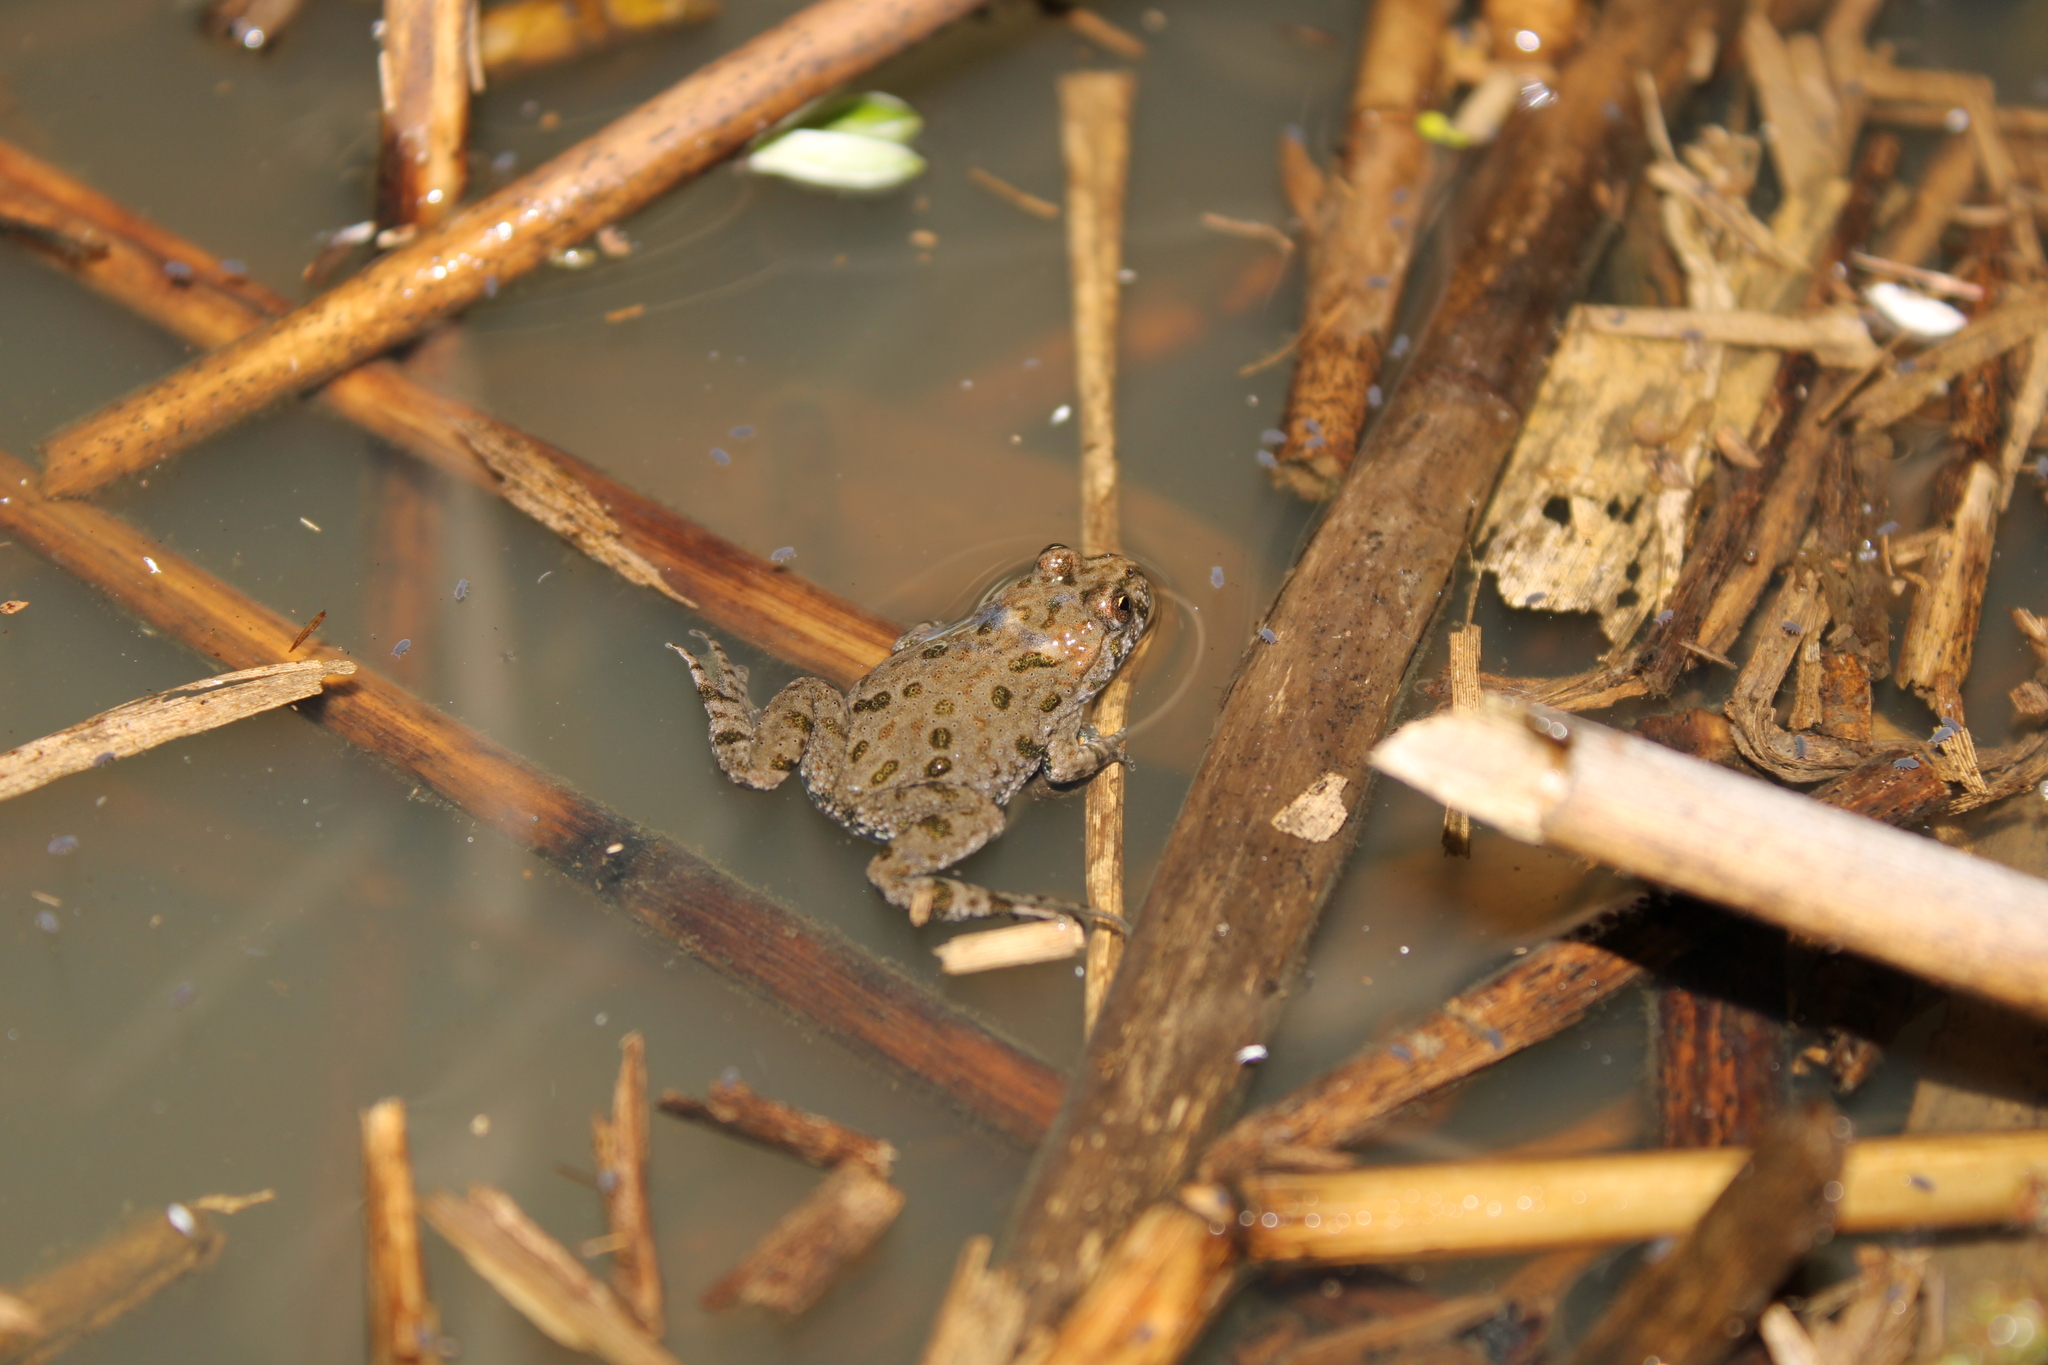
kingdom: Animalia
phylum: Chordata
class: Amphibia
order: Anura
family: Bombinatoridae
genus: Bombina
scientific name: Bombina bombina
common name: Fire-bellied toad
